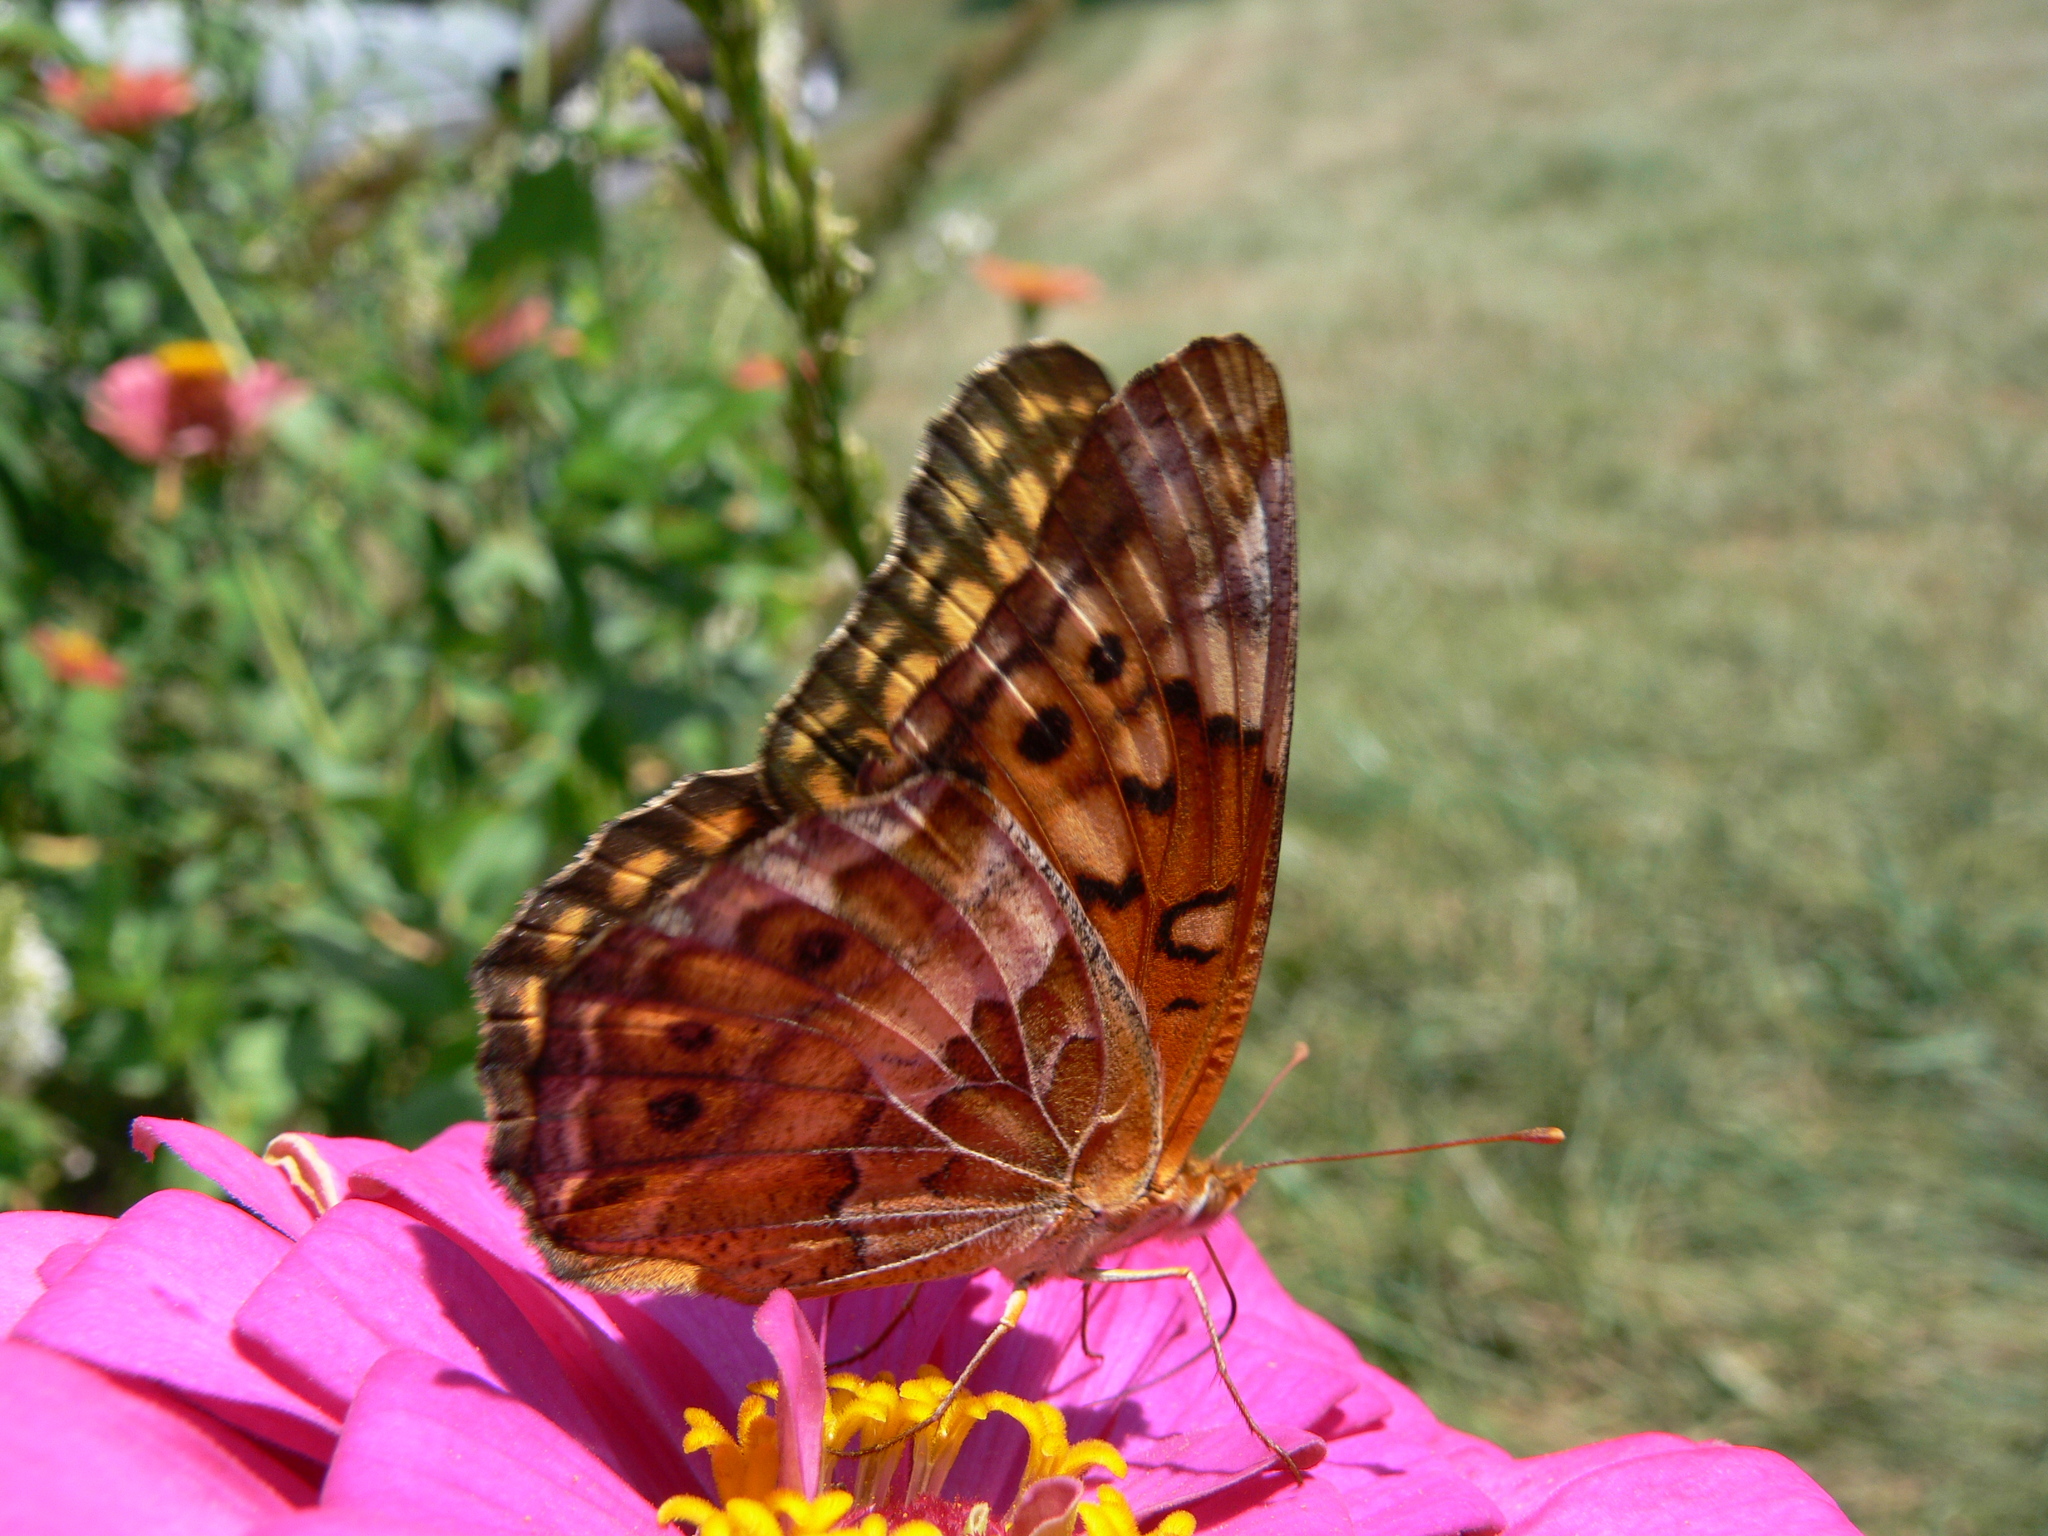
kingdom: Animalia
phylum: Arthropoda
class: Insecta
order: Lepidoptera
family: Nymphalidae
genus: Euptoieta
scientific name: Euptoieta claudia
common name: Variegated fritillary
